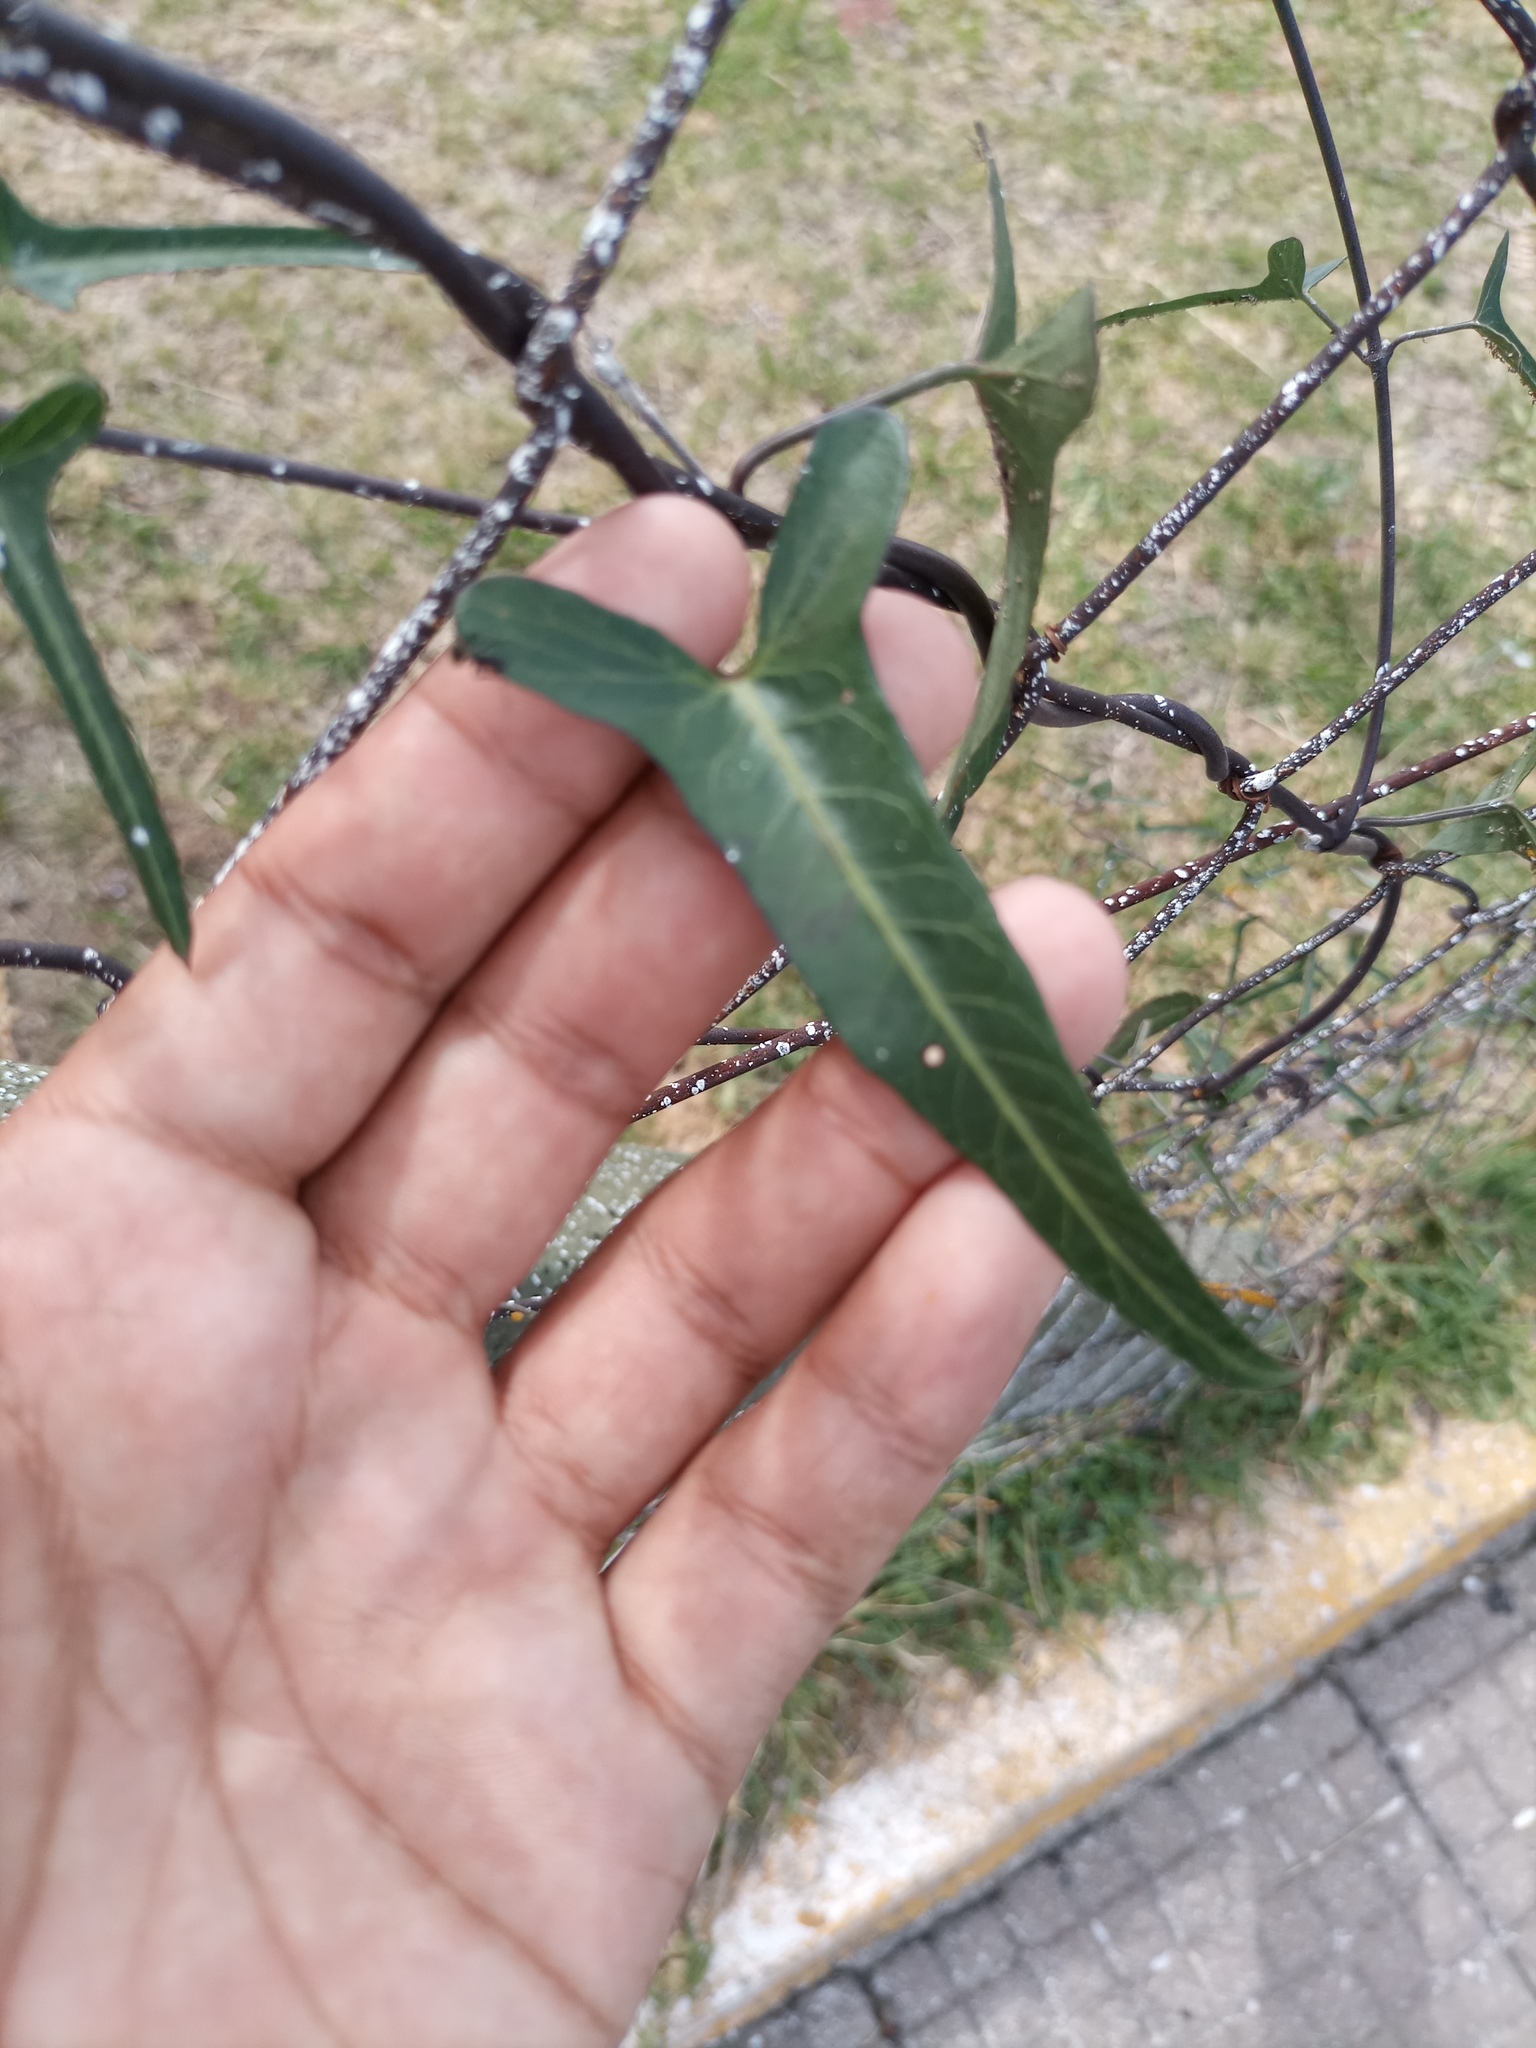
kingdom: Plantae
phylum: Tracheophyta
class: Magnoliopsida
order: Gentianales
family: Apocynaceae
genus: Araujia
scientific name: Araujia angustifolia
